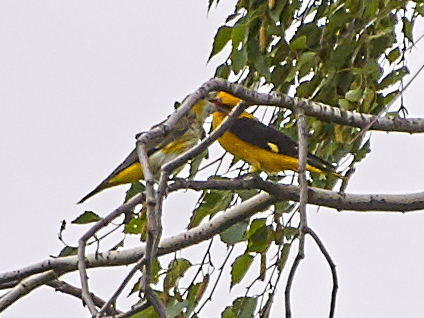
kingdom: Animalia
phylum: Chordata
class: Aves
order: Passeriformes
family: Oriolidae
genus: Oriolus
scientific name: Oriolus oriolus
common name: Eurasian golden oriole
